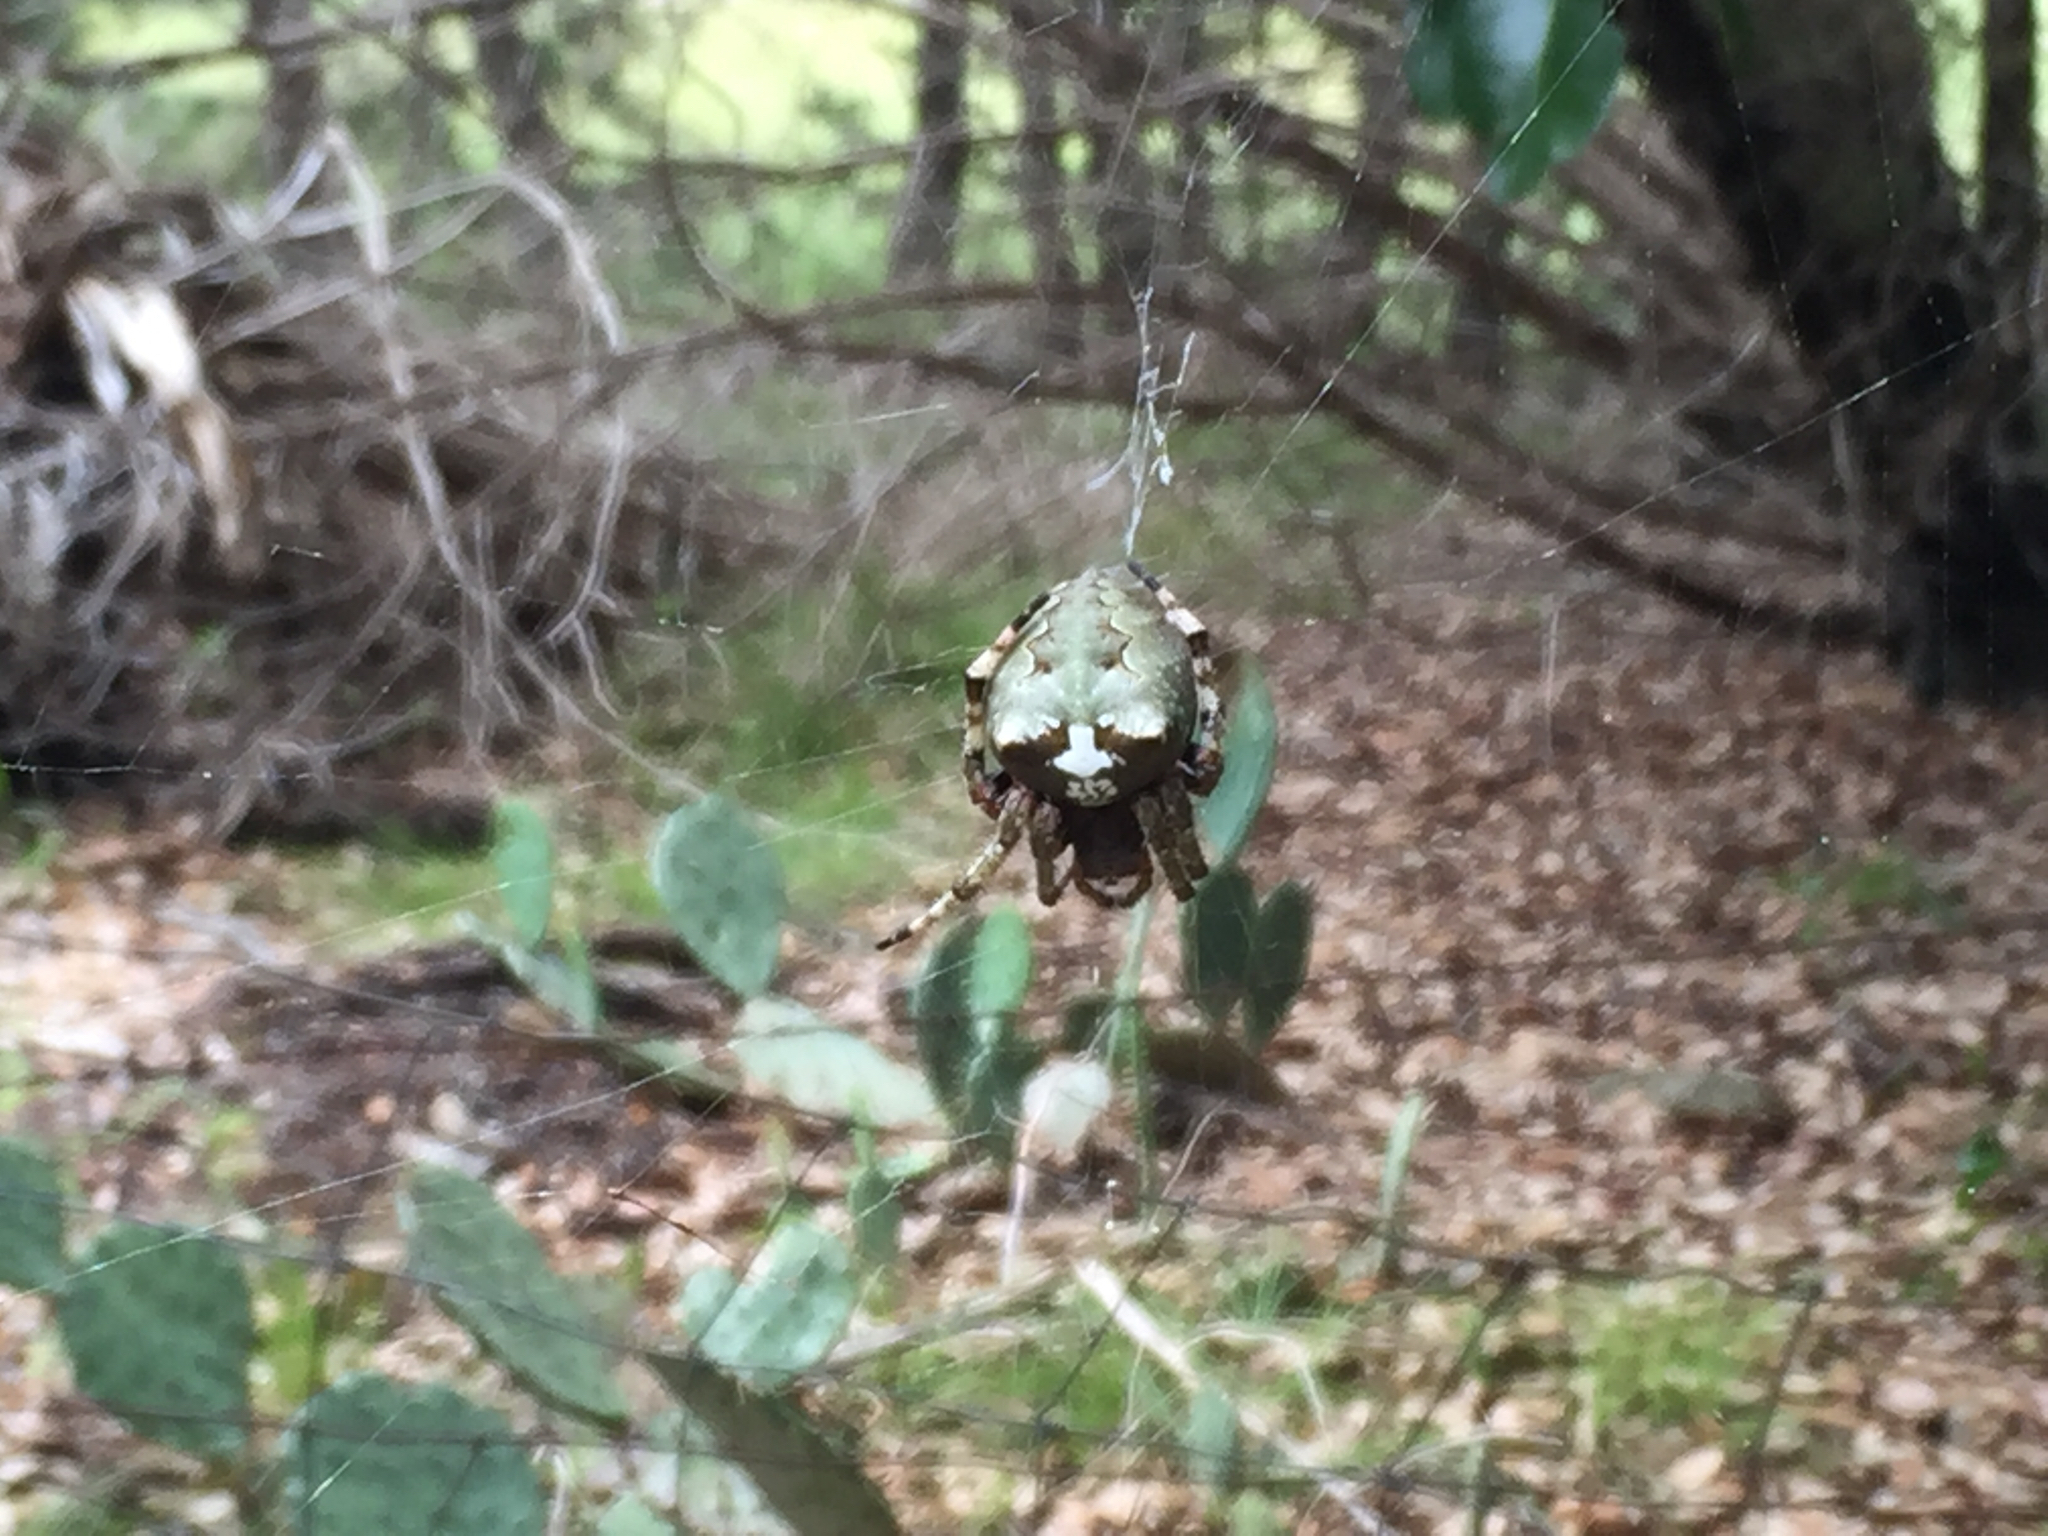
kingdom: Animalia
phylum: Arthropoda
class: Arachnida
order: Araneae
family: Araneidae
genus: Araneus
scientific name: Araneus bicentenarius
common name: Giant lichen orbweaver
